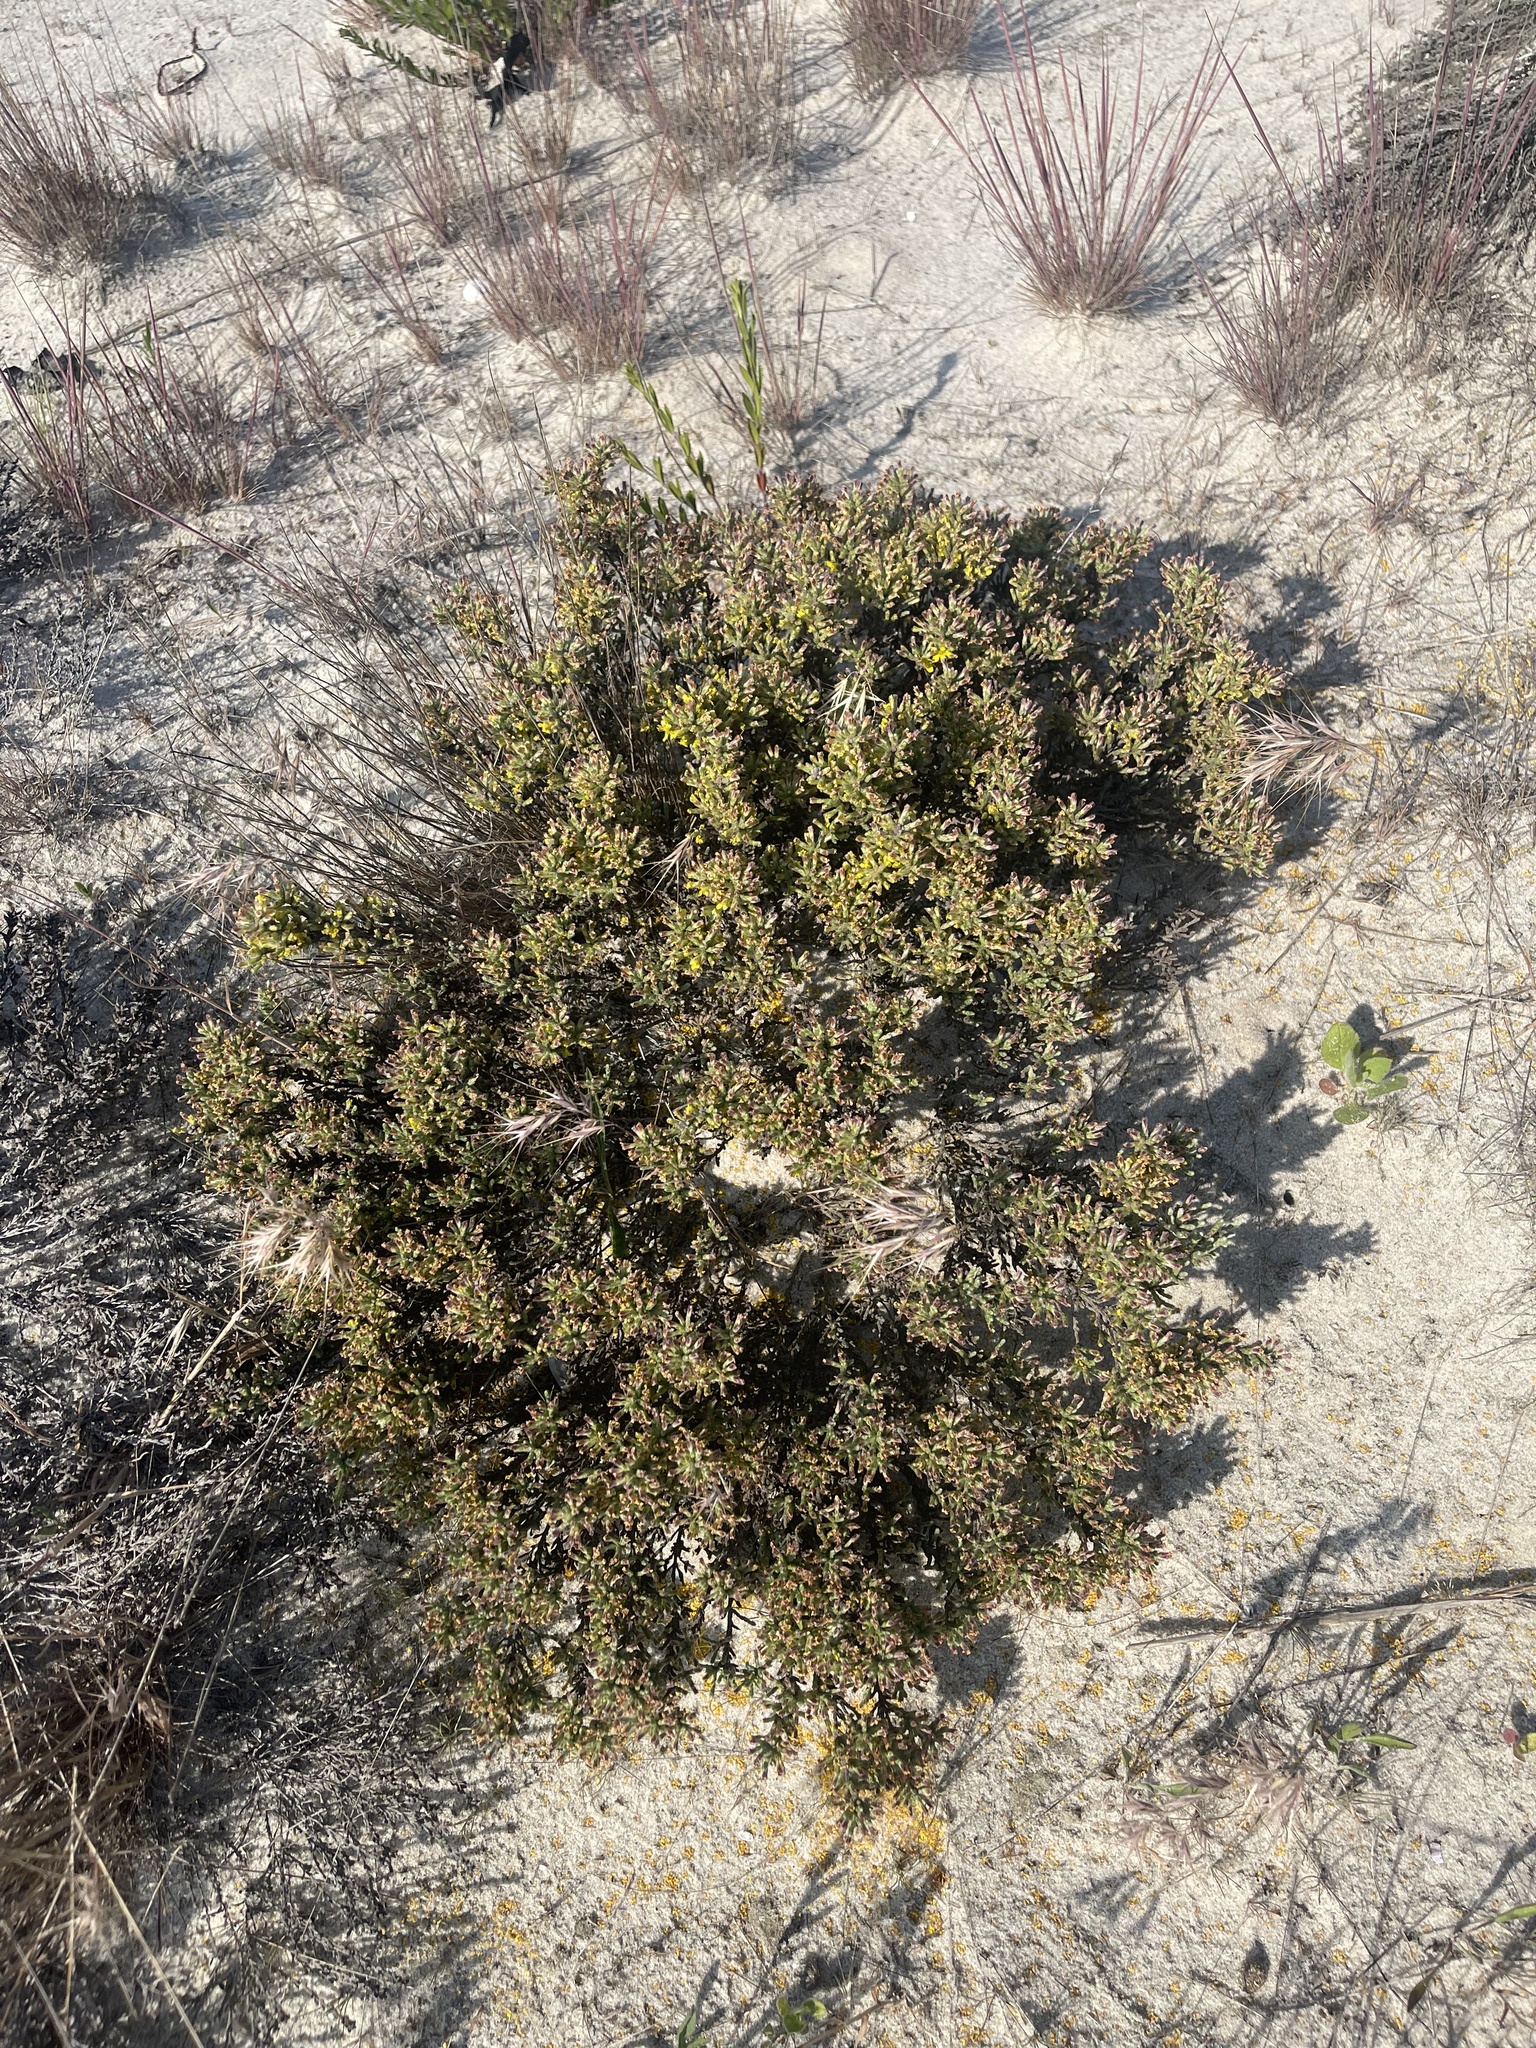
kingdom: Plantae
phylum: Tracheophyta
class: Magnoliopsida
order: Malvales
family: Cistaceae
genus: Hudsonia
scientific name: Hudsonia tomentosa
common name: Beach-heath
